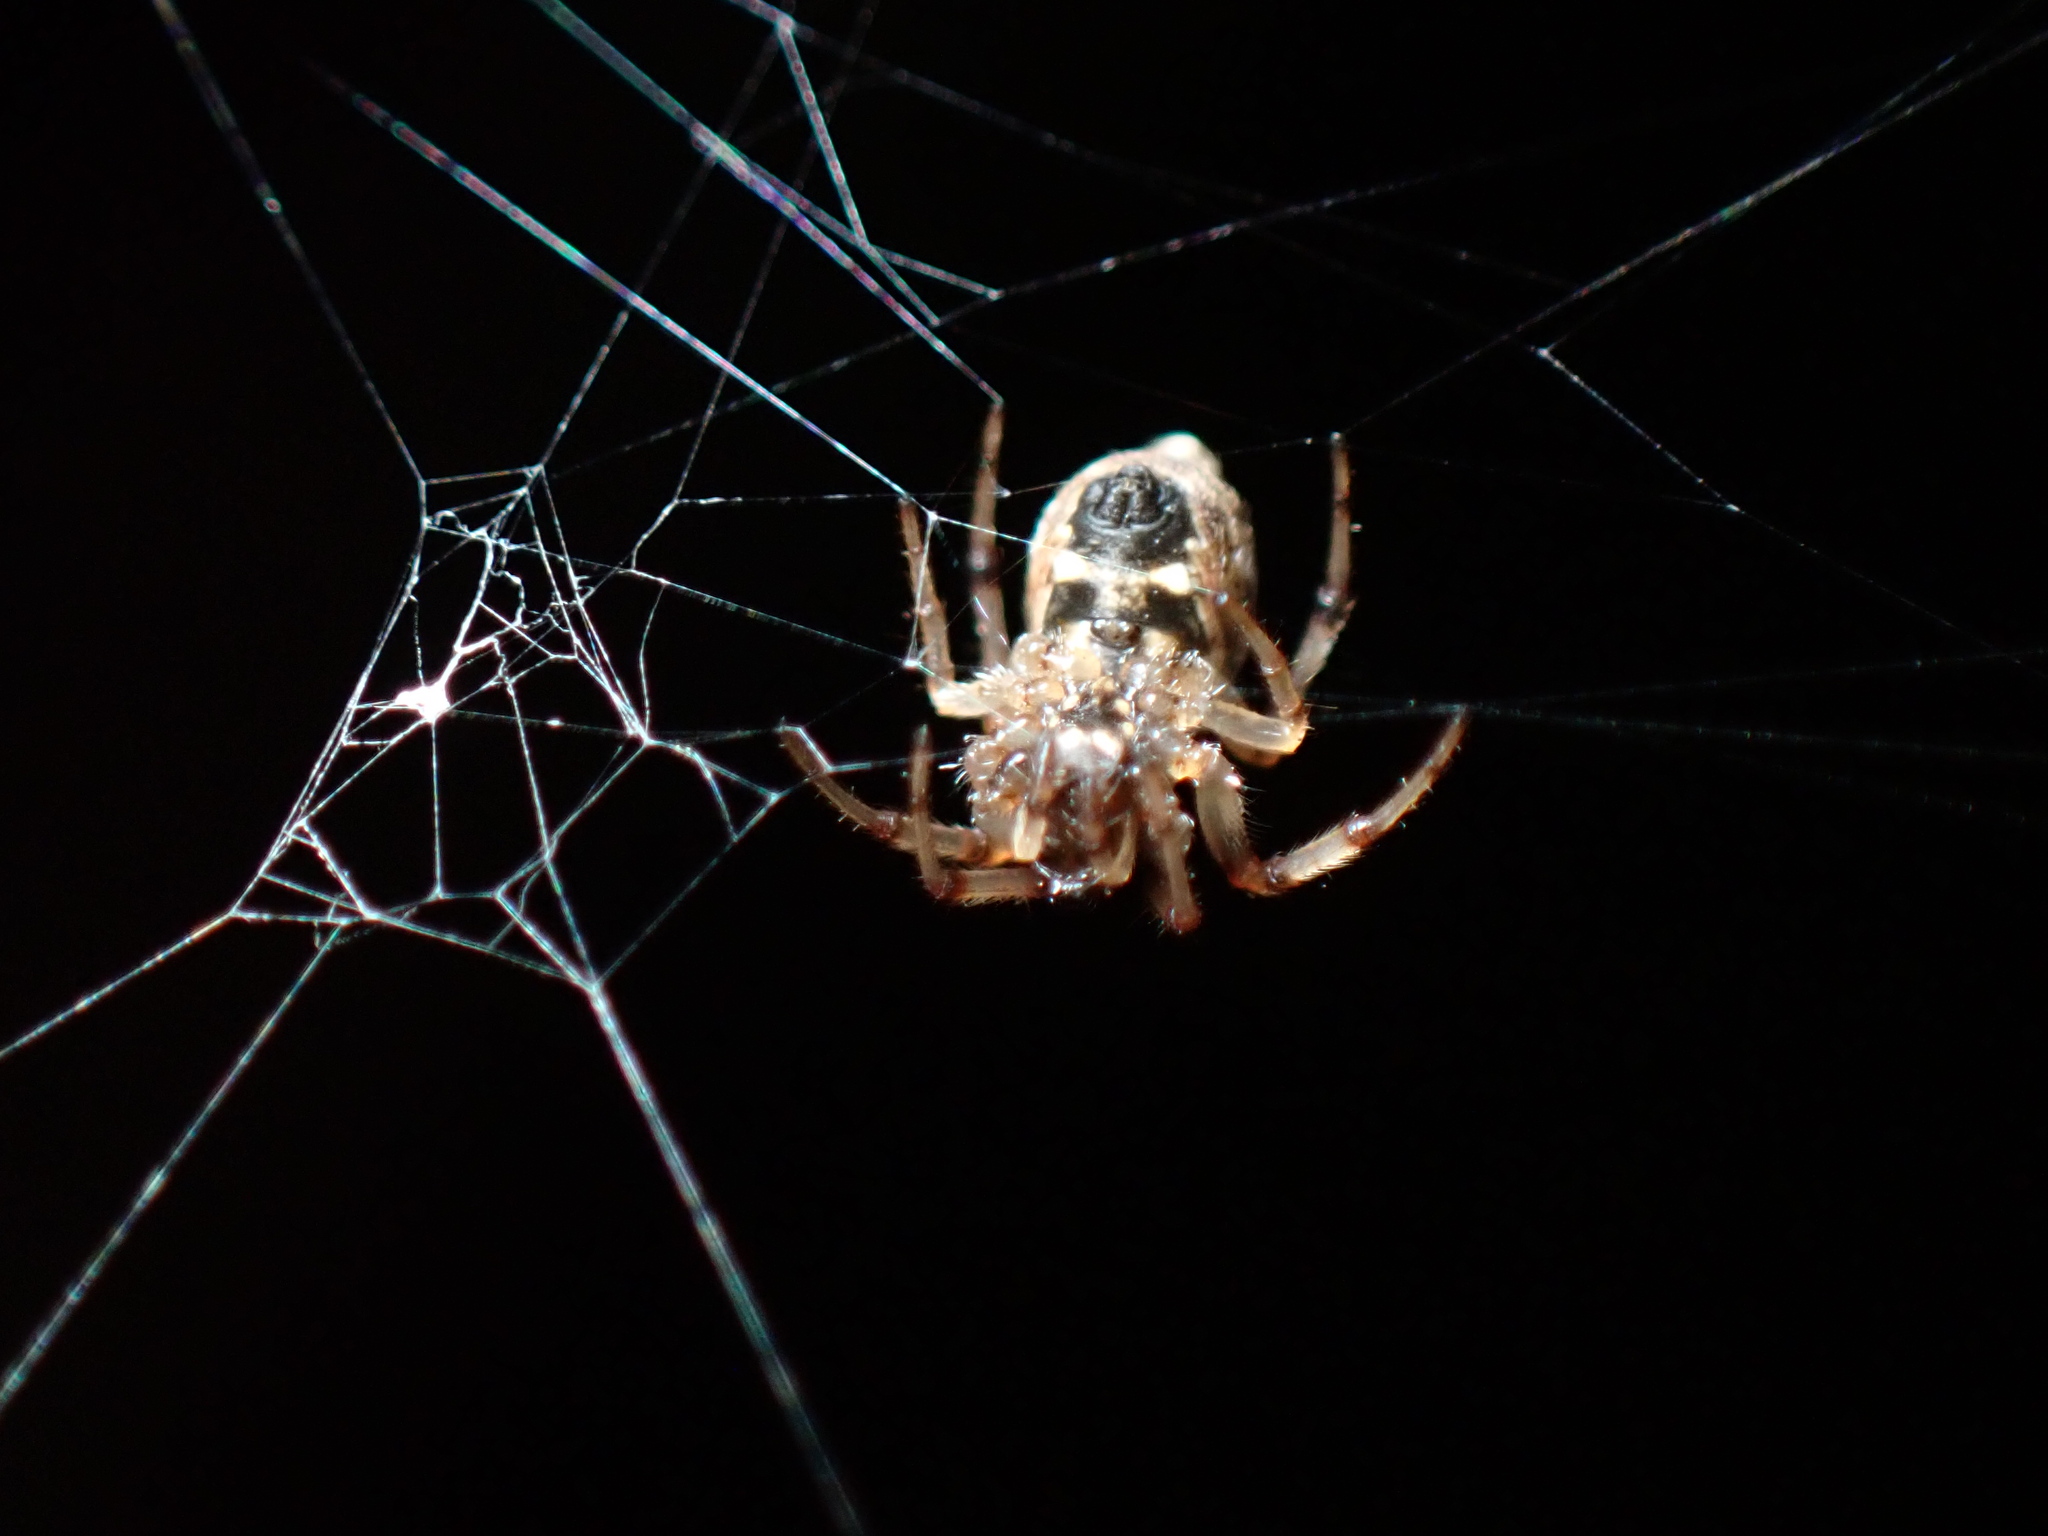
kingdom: Animalia
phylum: Arthropoda
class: Arachnida
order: Araneae
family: Araneidae
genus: Cyclosa
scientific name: Cyclosa turbinata
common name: Orb weavers
